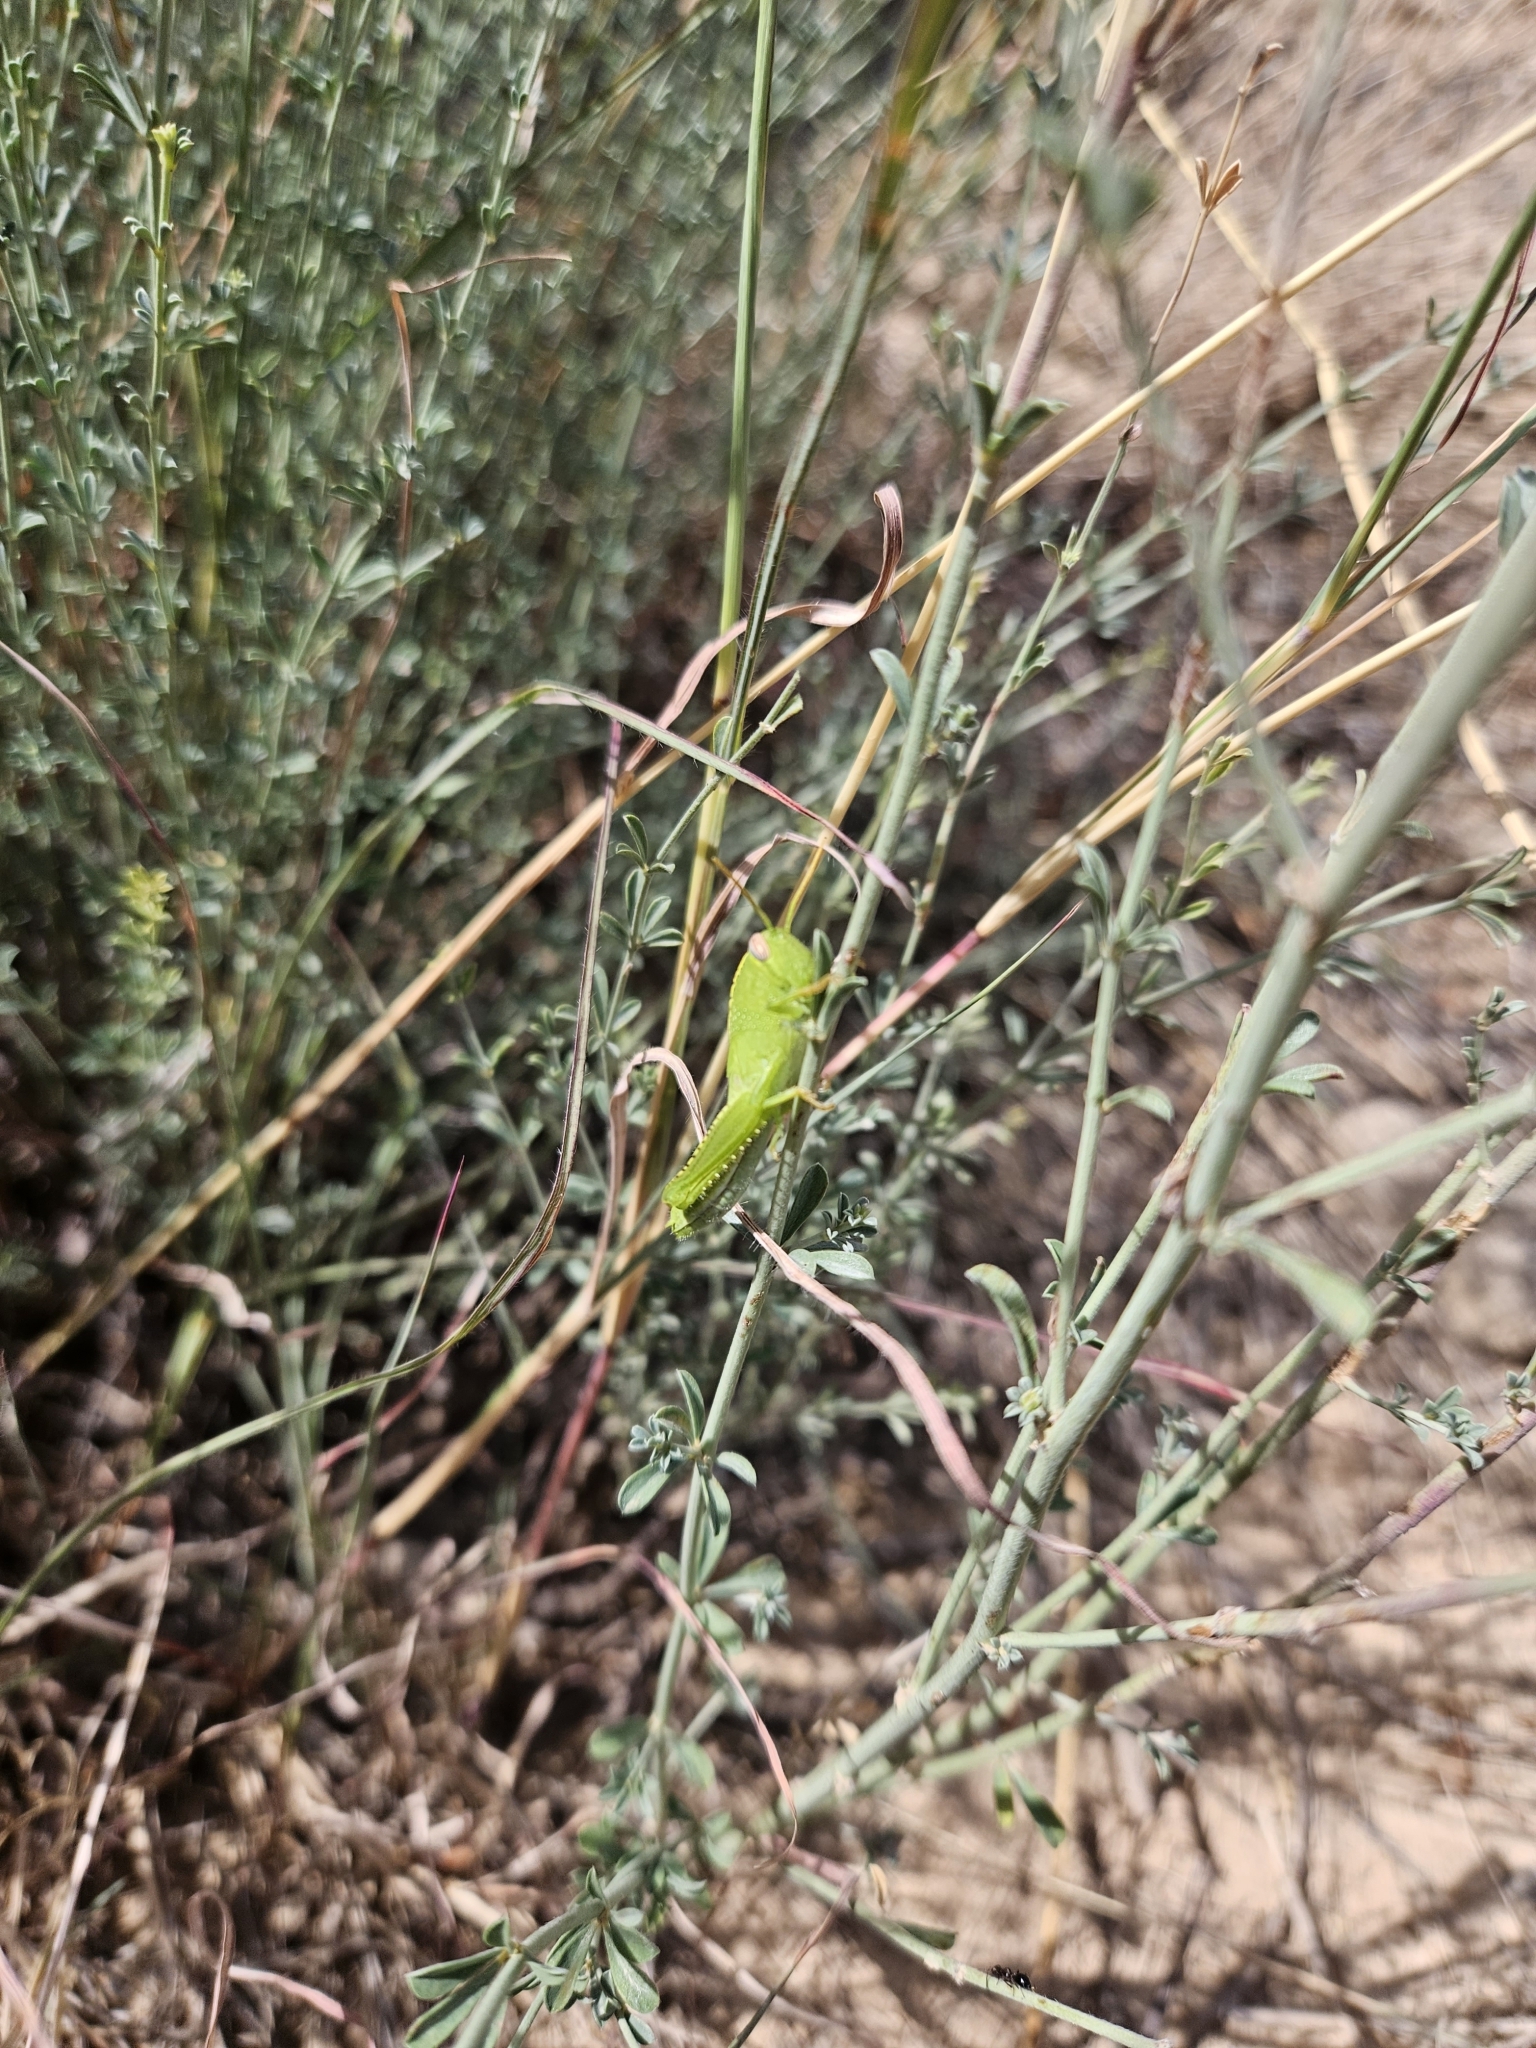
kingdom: Animalia
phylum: Arthropoda
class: Insecta
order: Orthoptera
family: Acrididae
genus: Anacridium
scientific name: Anacridium aegyptium
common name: Egyptian grasshopper
